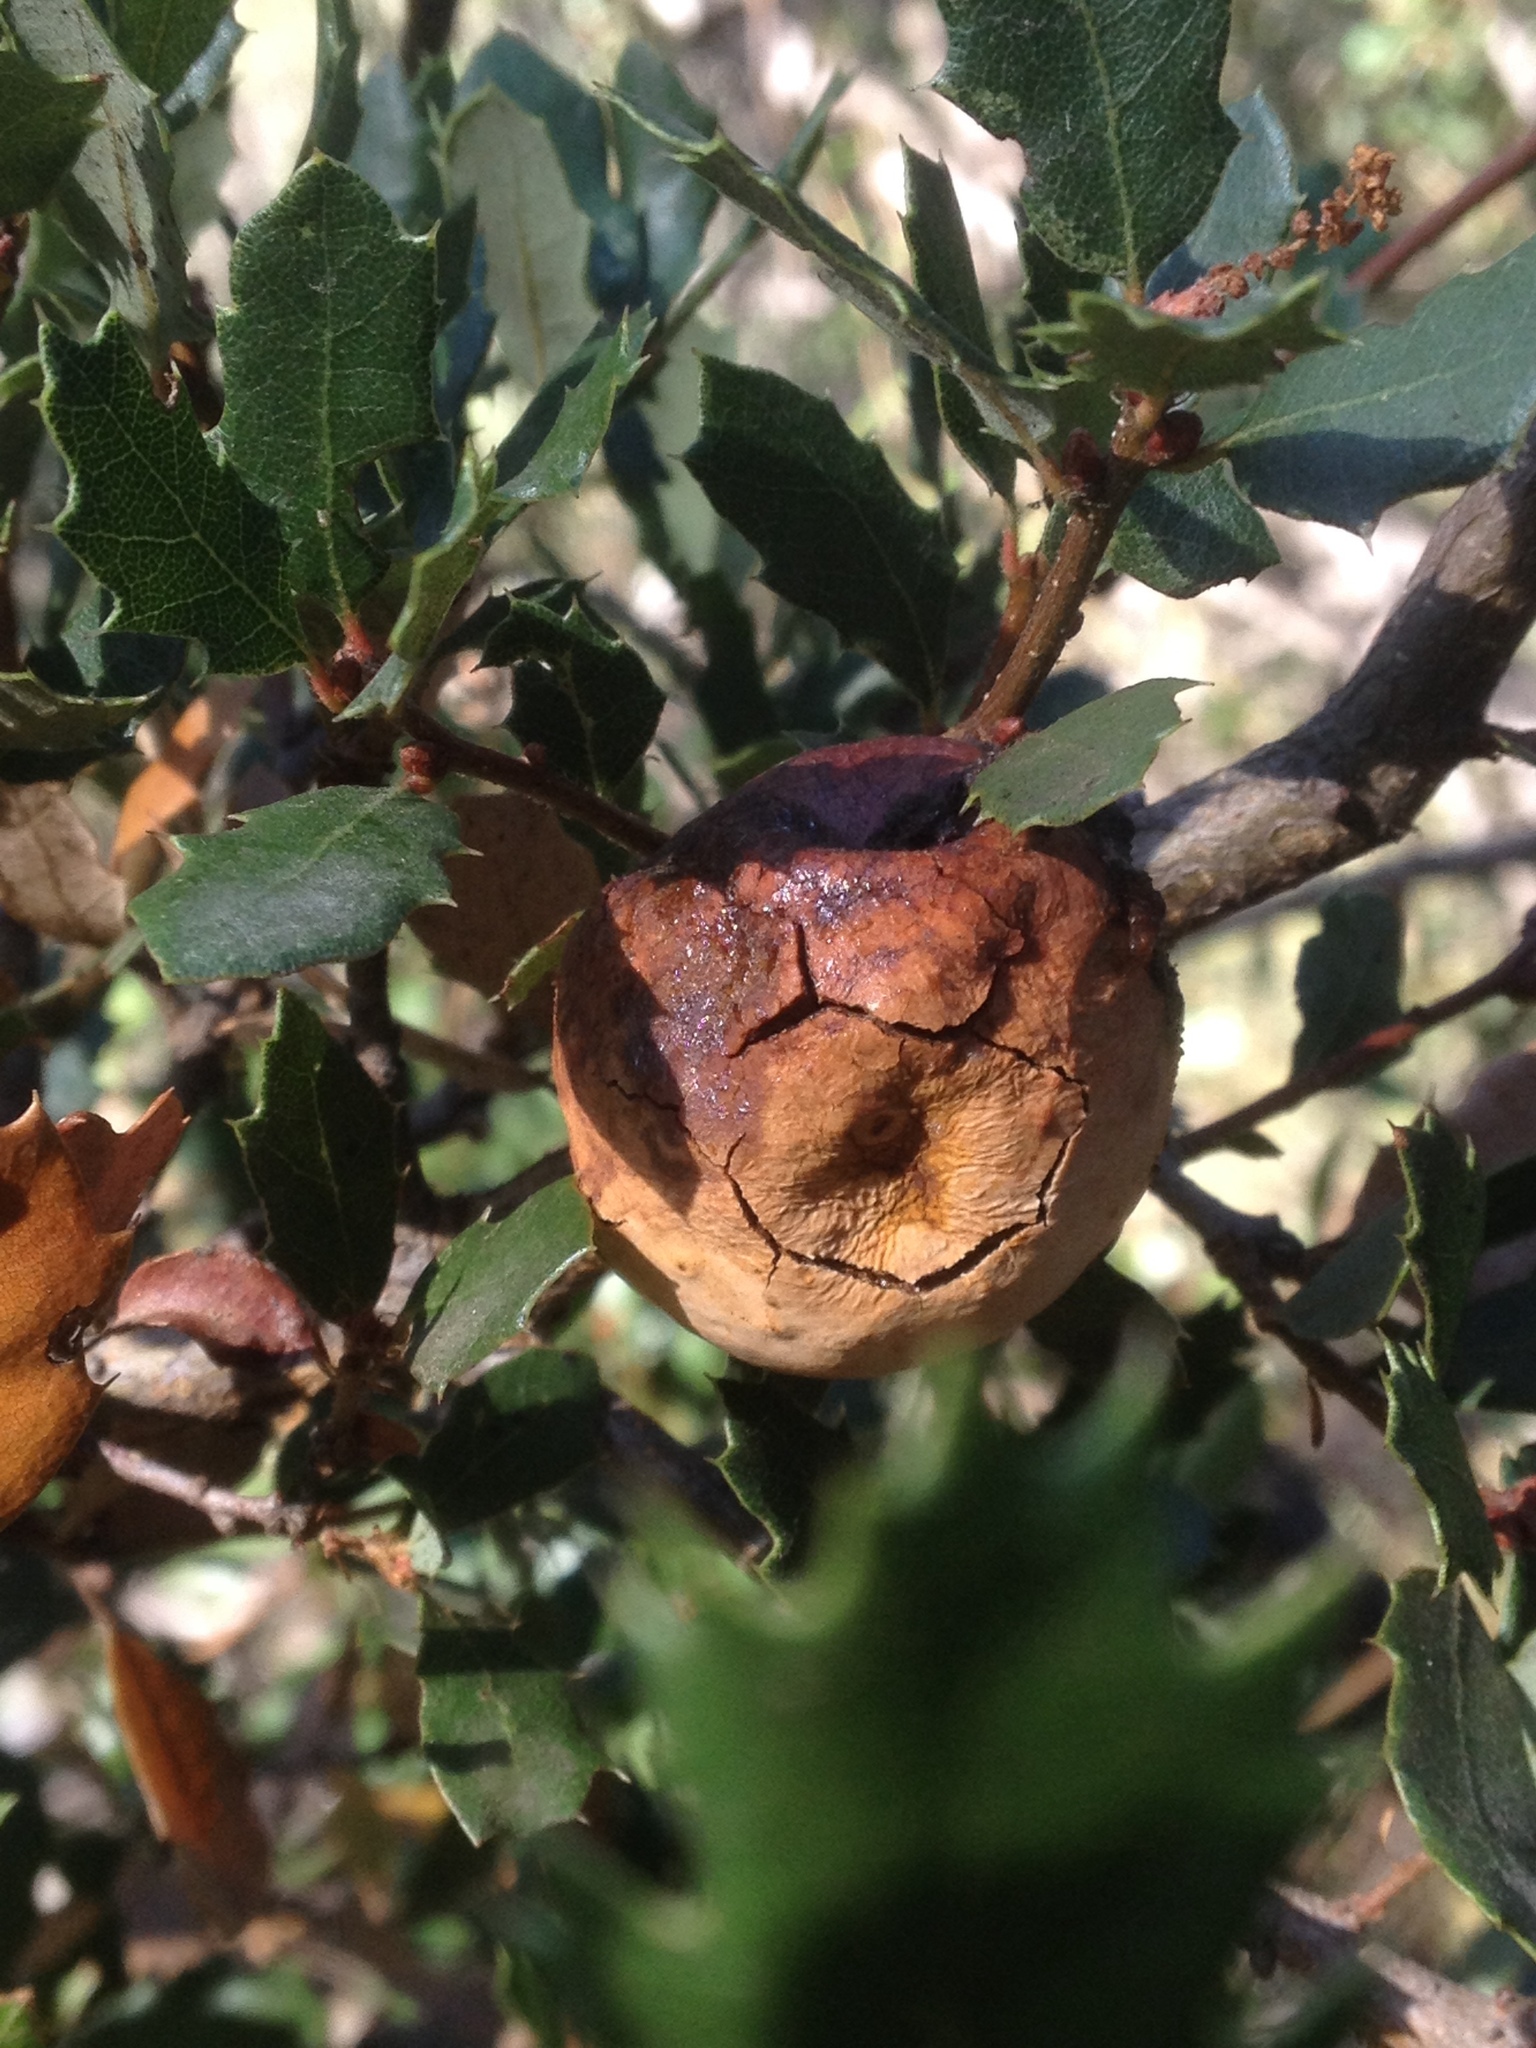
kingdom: Animalia
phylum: Arthropoda
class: Insecta
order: Hymenoptera
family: Cynipidae
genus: Andricus
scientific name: Andricus quercuscalifornicus
